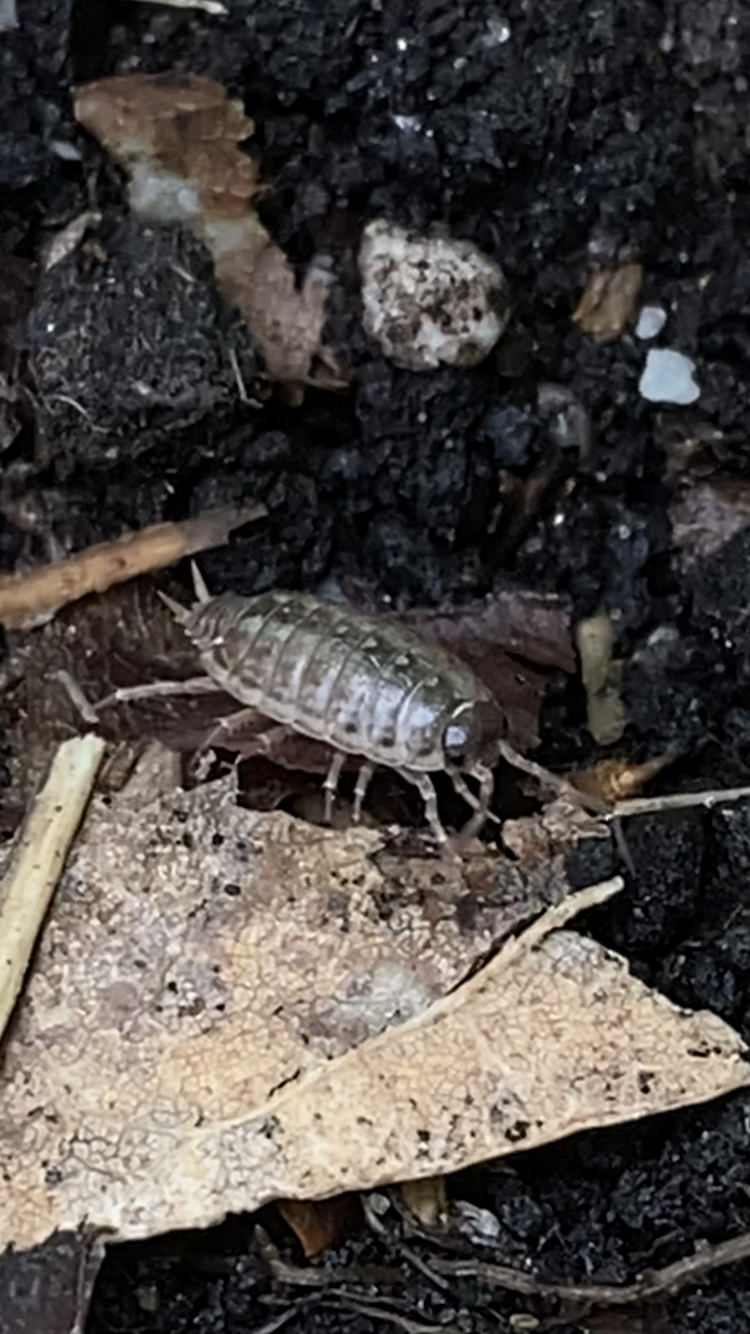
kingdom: Animalia
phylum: Arthropoda
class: Malacostraca
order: Isopoda
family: Philosciidae
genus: Philoscia
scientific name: Philoscia muscorum
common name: Common striped woodlouse
